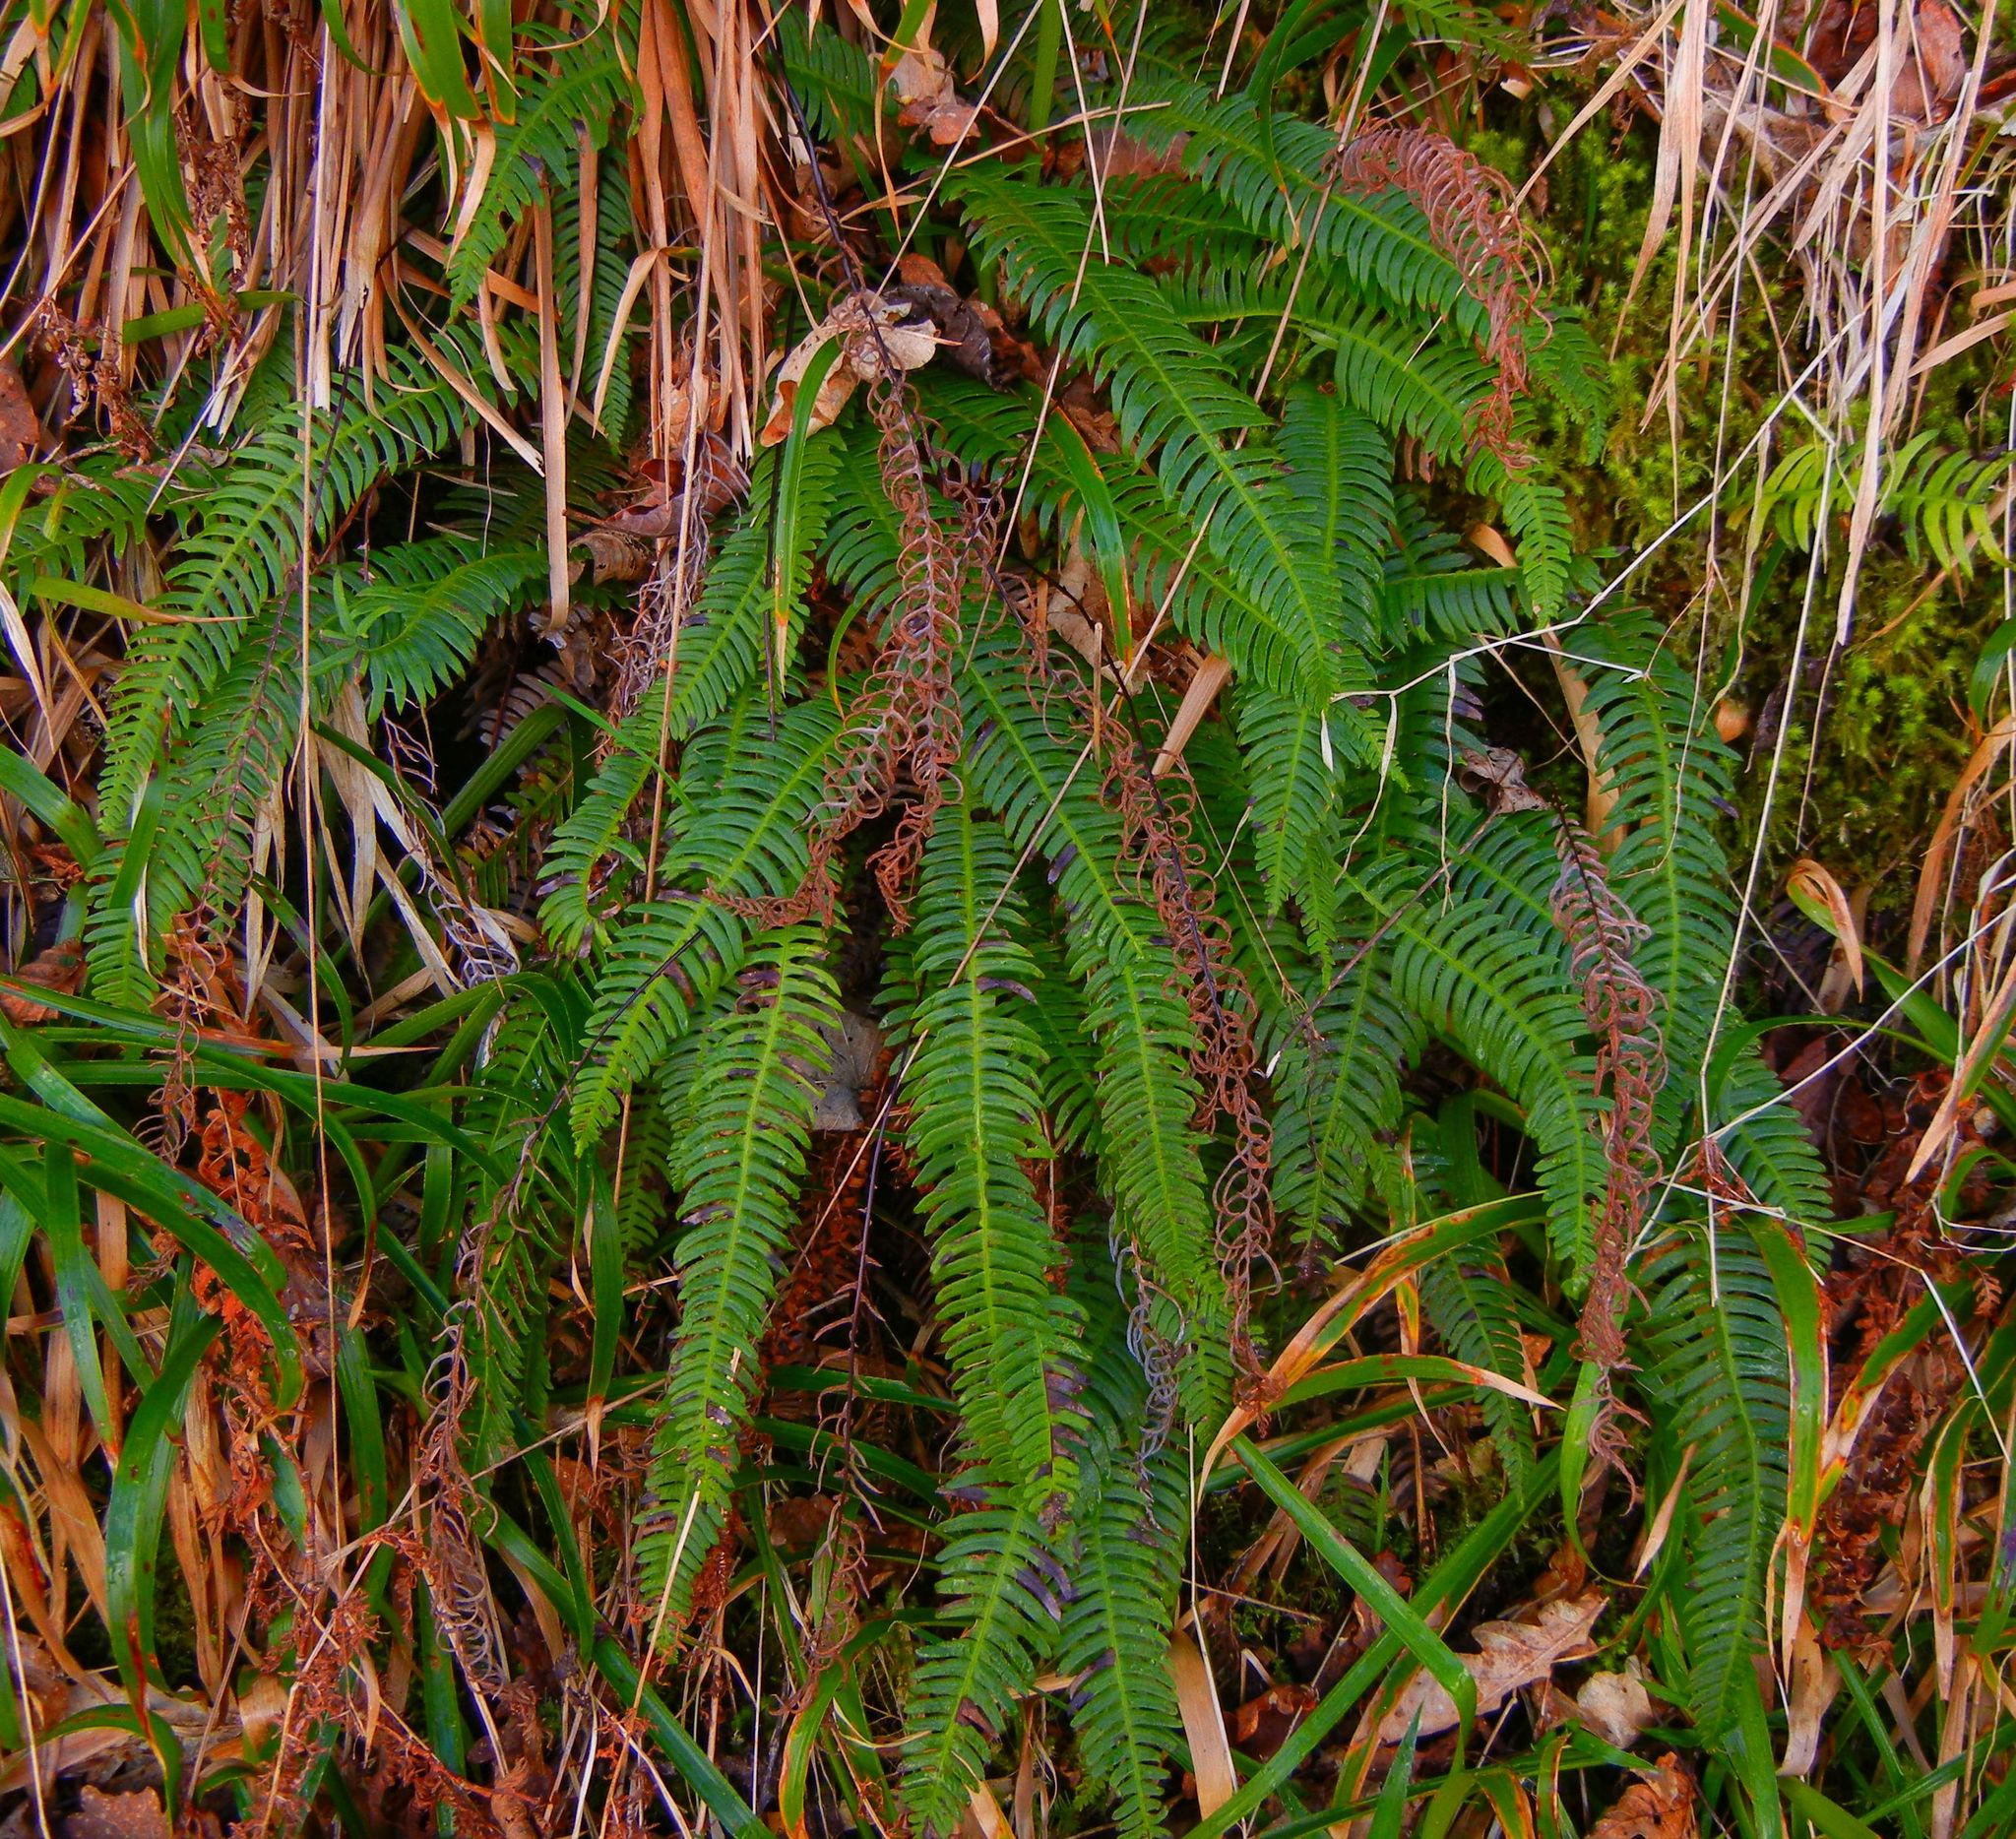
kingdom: Plantae
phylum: Tracheophyta
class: Polypodiopsida
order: Polypodiales
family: Blechnaceae
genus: Struthiopteris
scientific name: Struthiopteris spicant
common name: Deer fern
